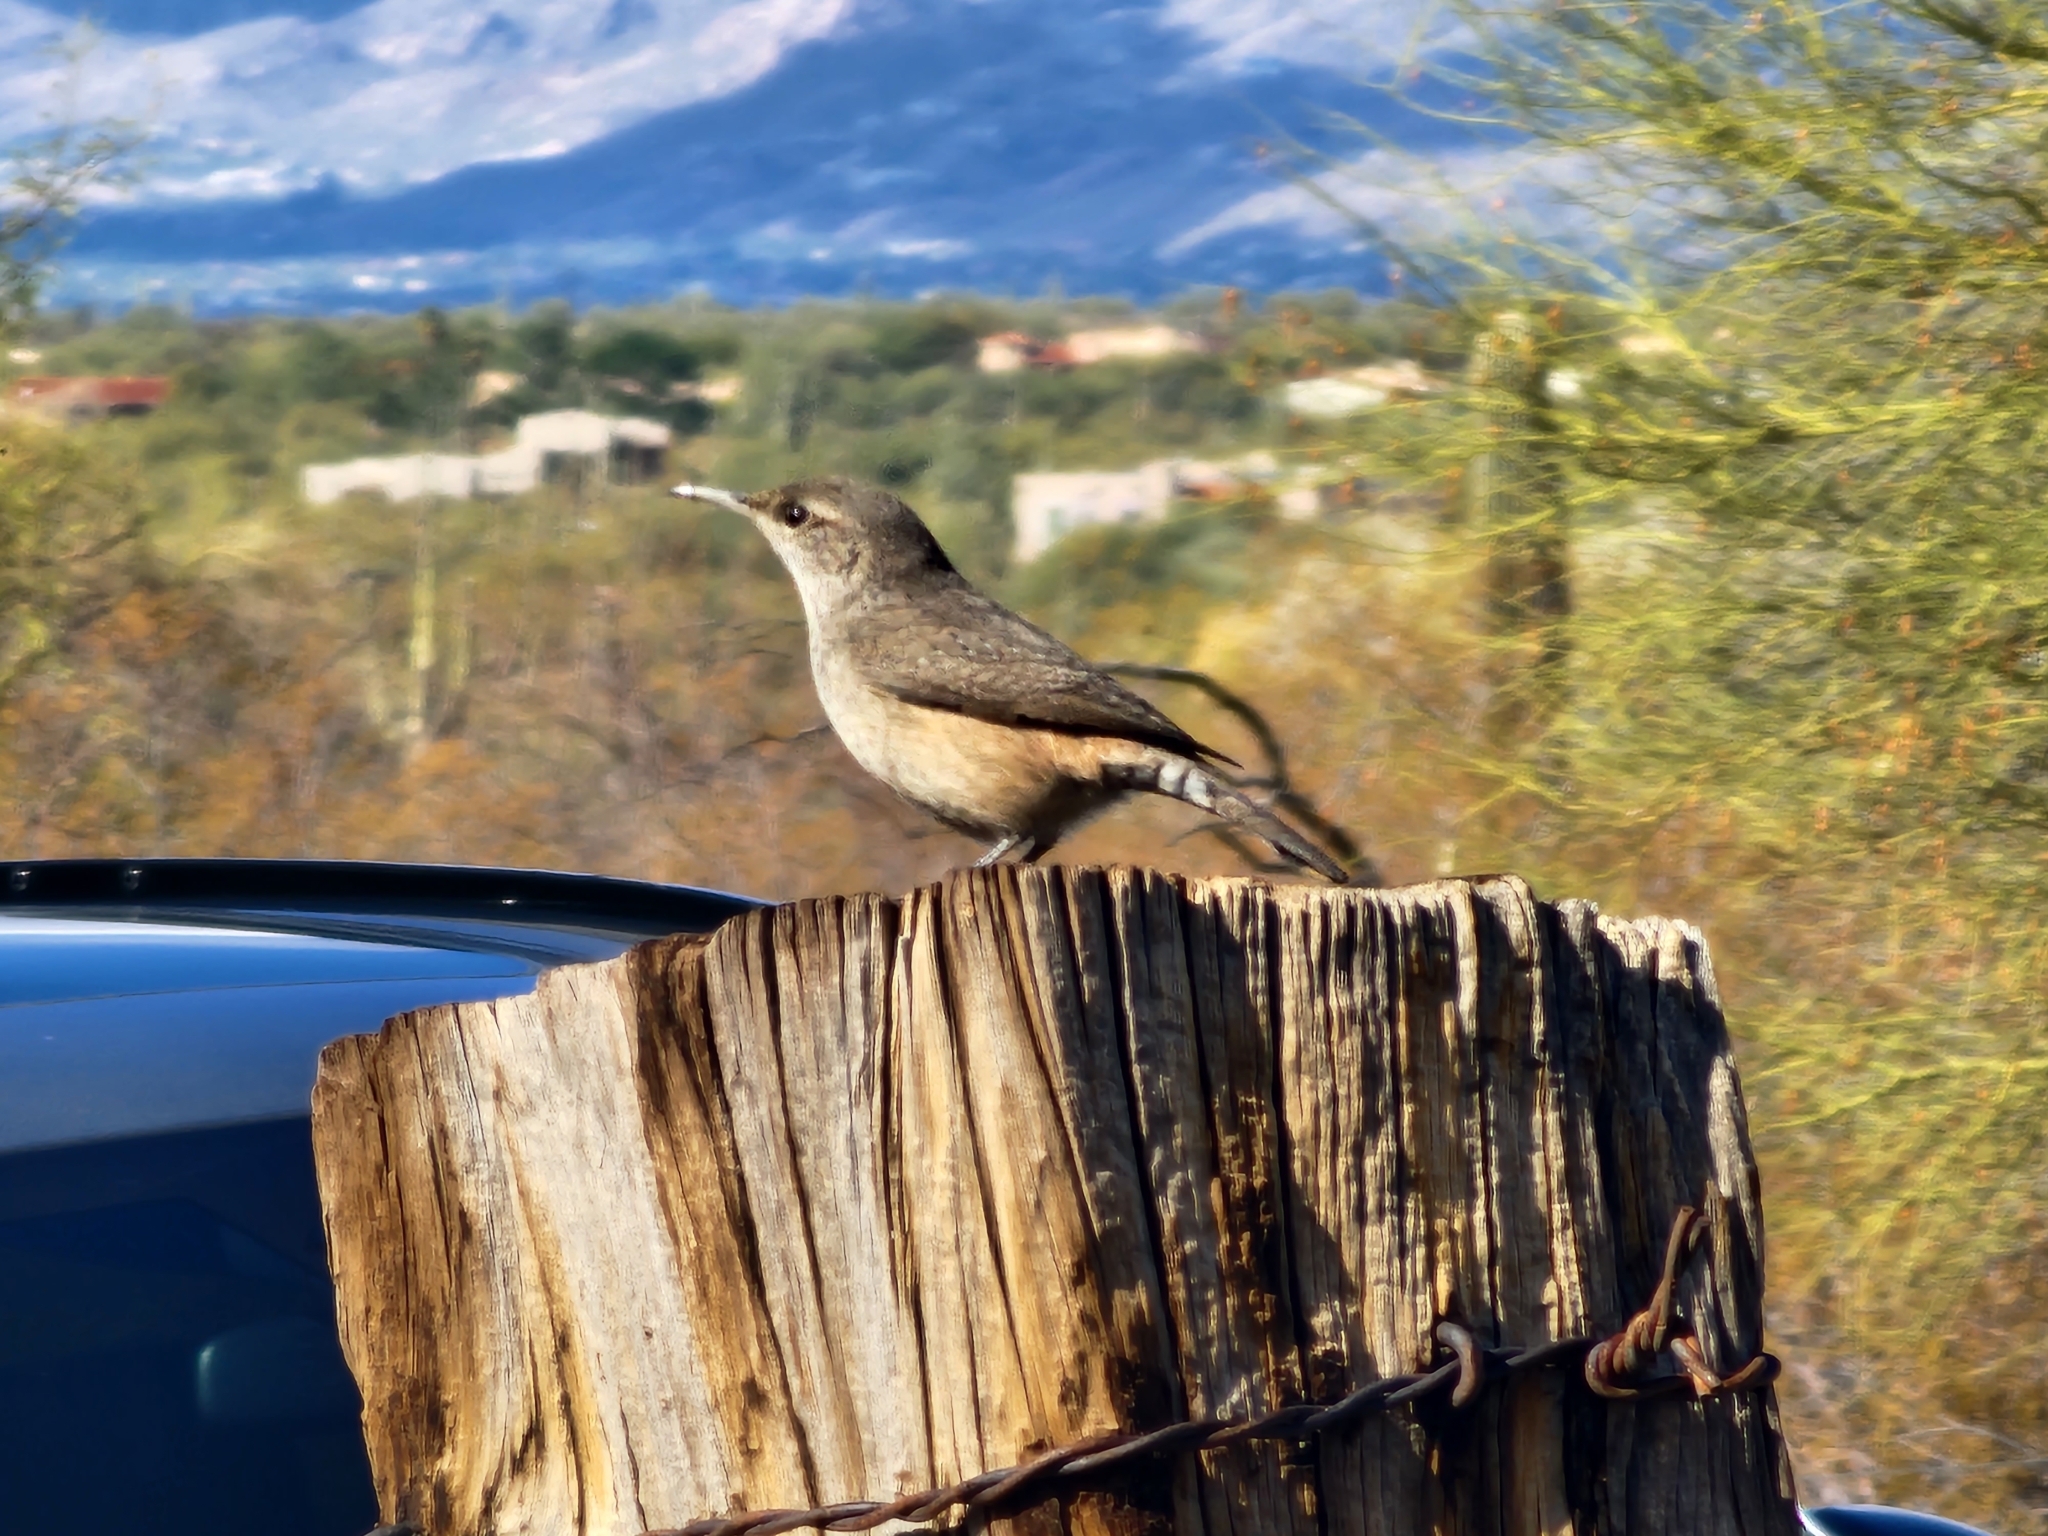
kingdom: Animalia
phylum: Chordata
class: Aves
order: Passeriformes
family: Troglodytidae
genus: Salpinctes
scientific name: Salpinctes obsoletus
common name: Rock wren
